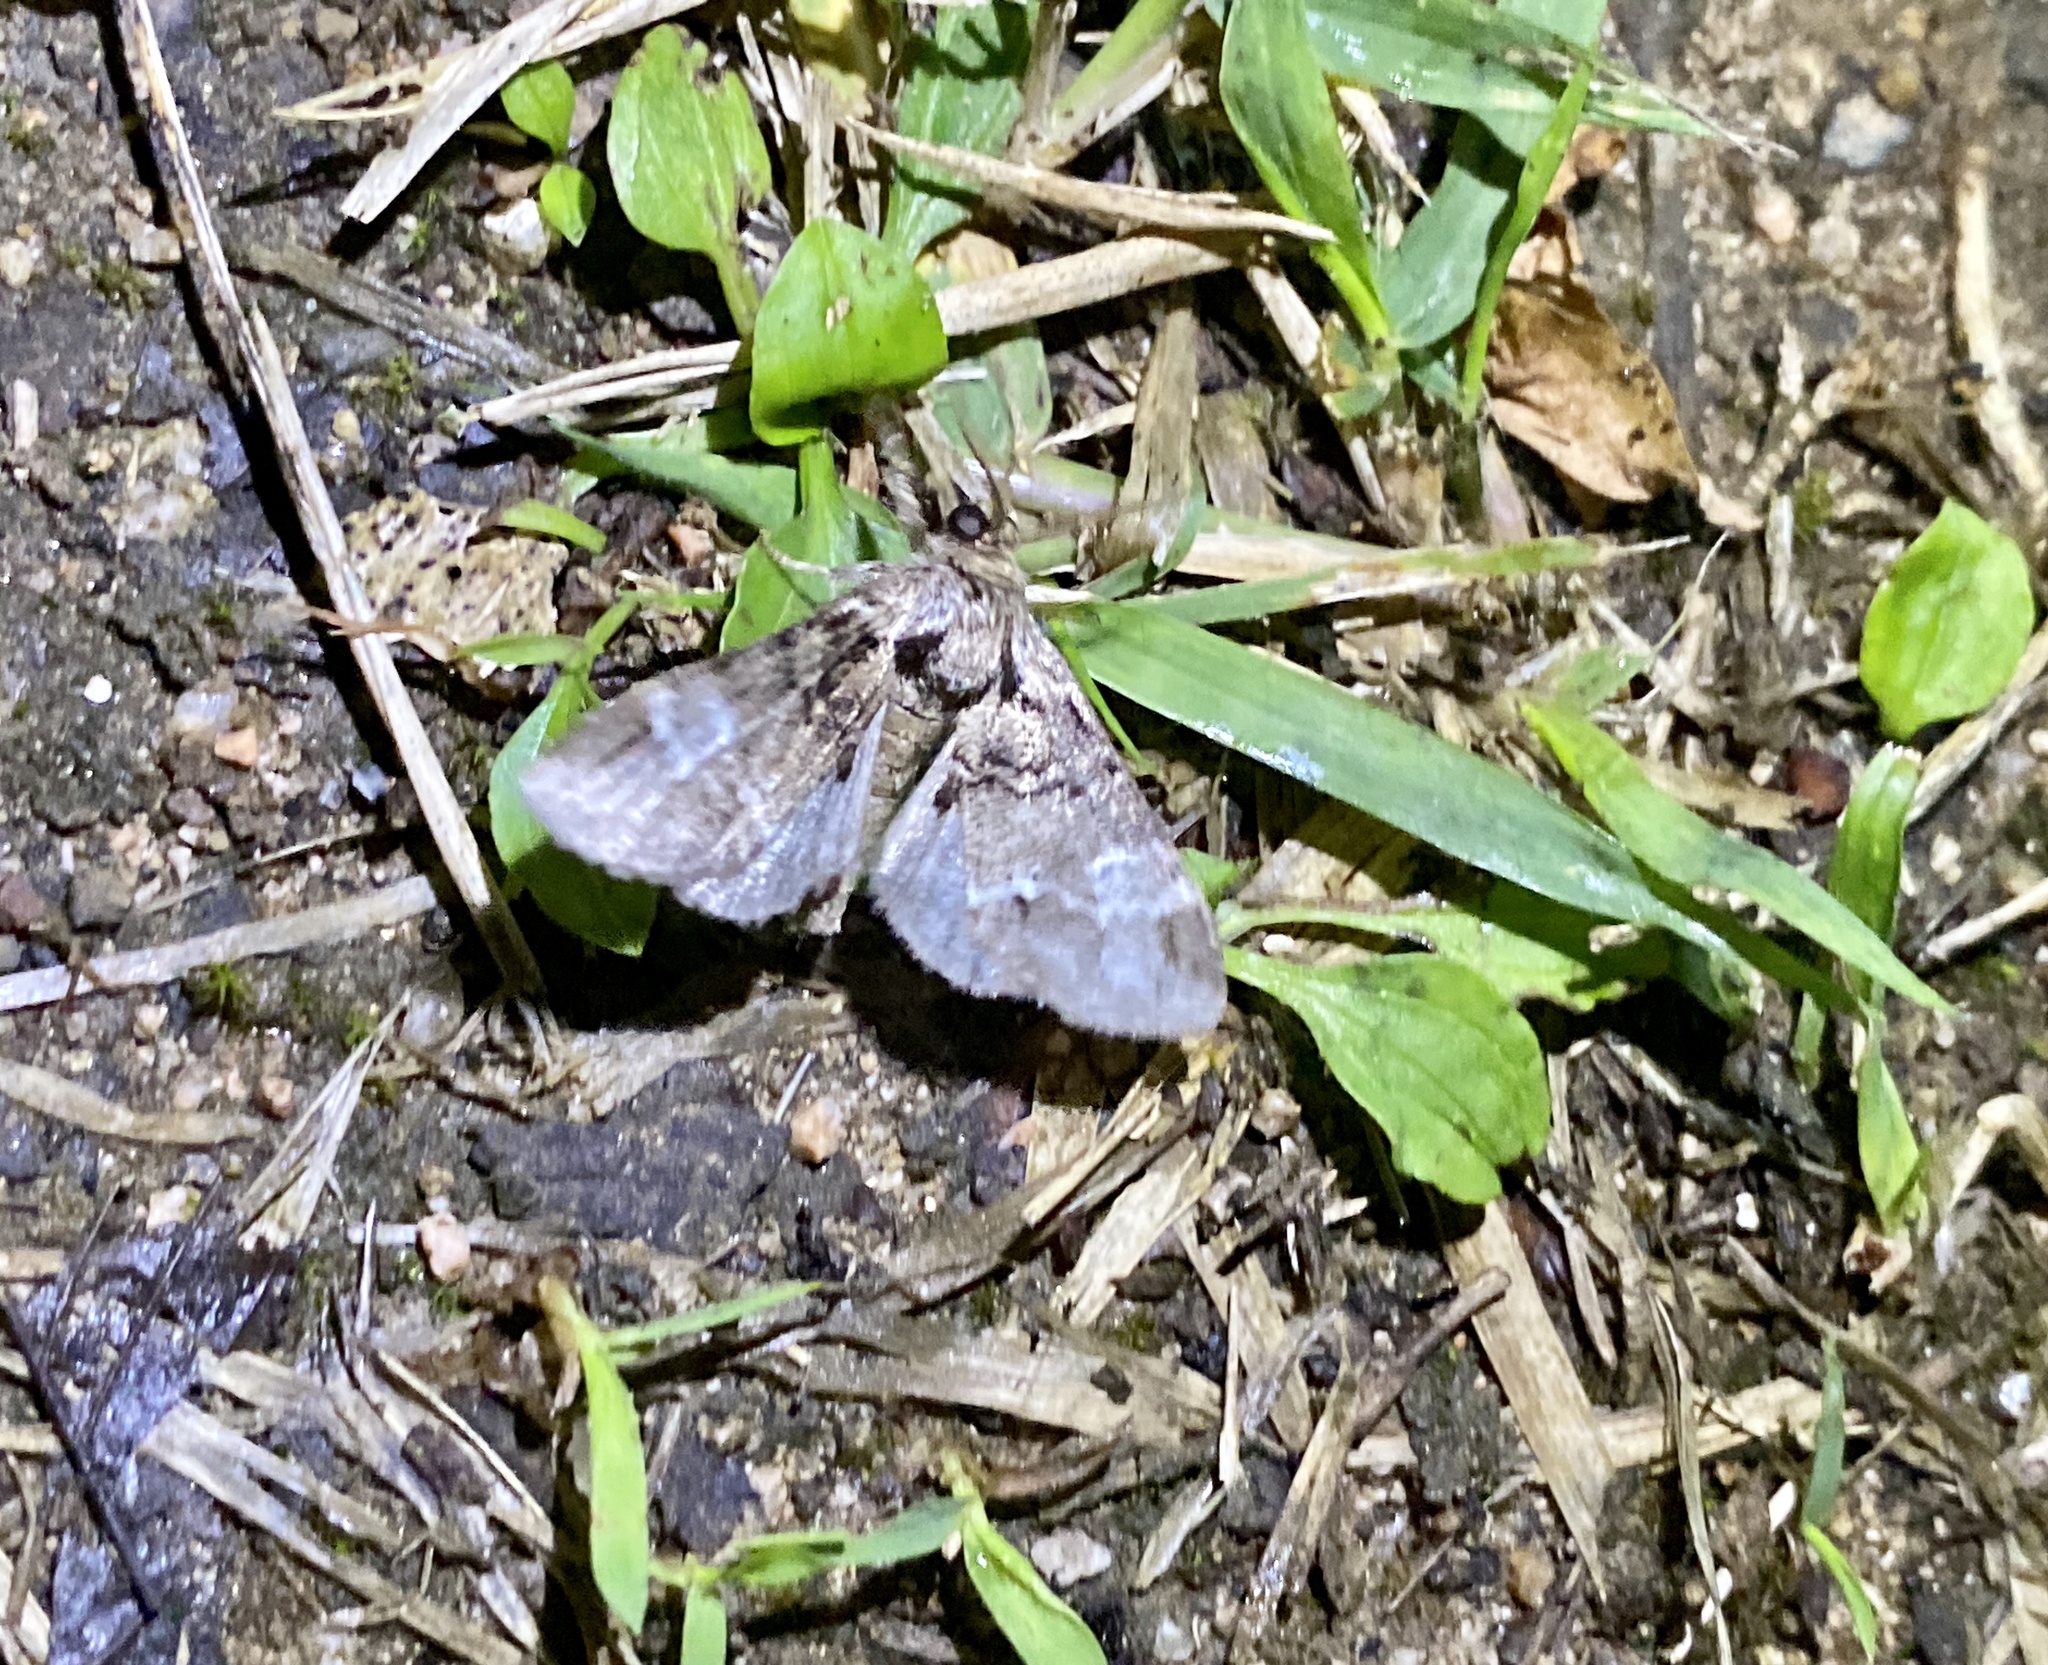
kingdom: Animalia
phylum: Arthropoda
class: Insecta
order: Lepidoptera
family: Notodontidae
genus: Drymonia
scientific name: Drymonia japonica
